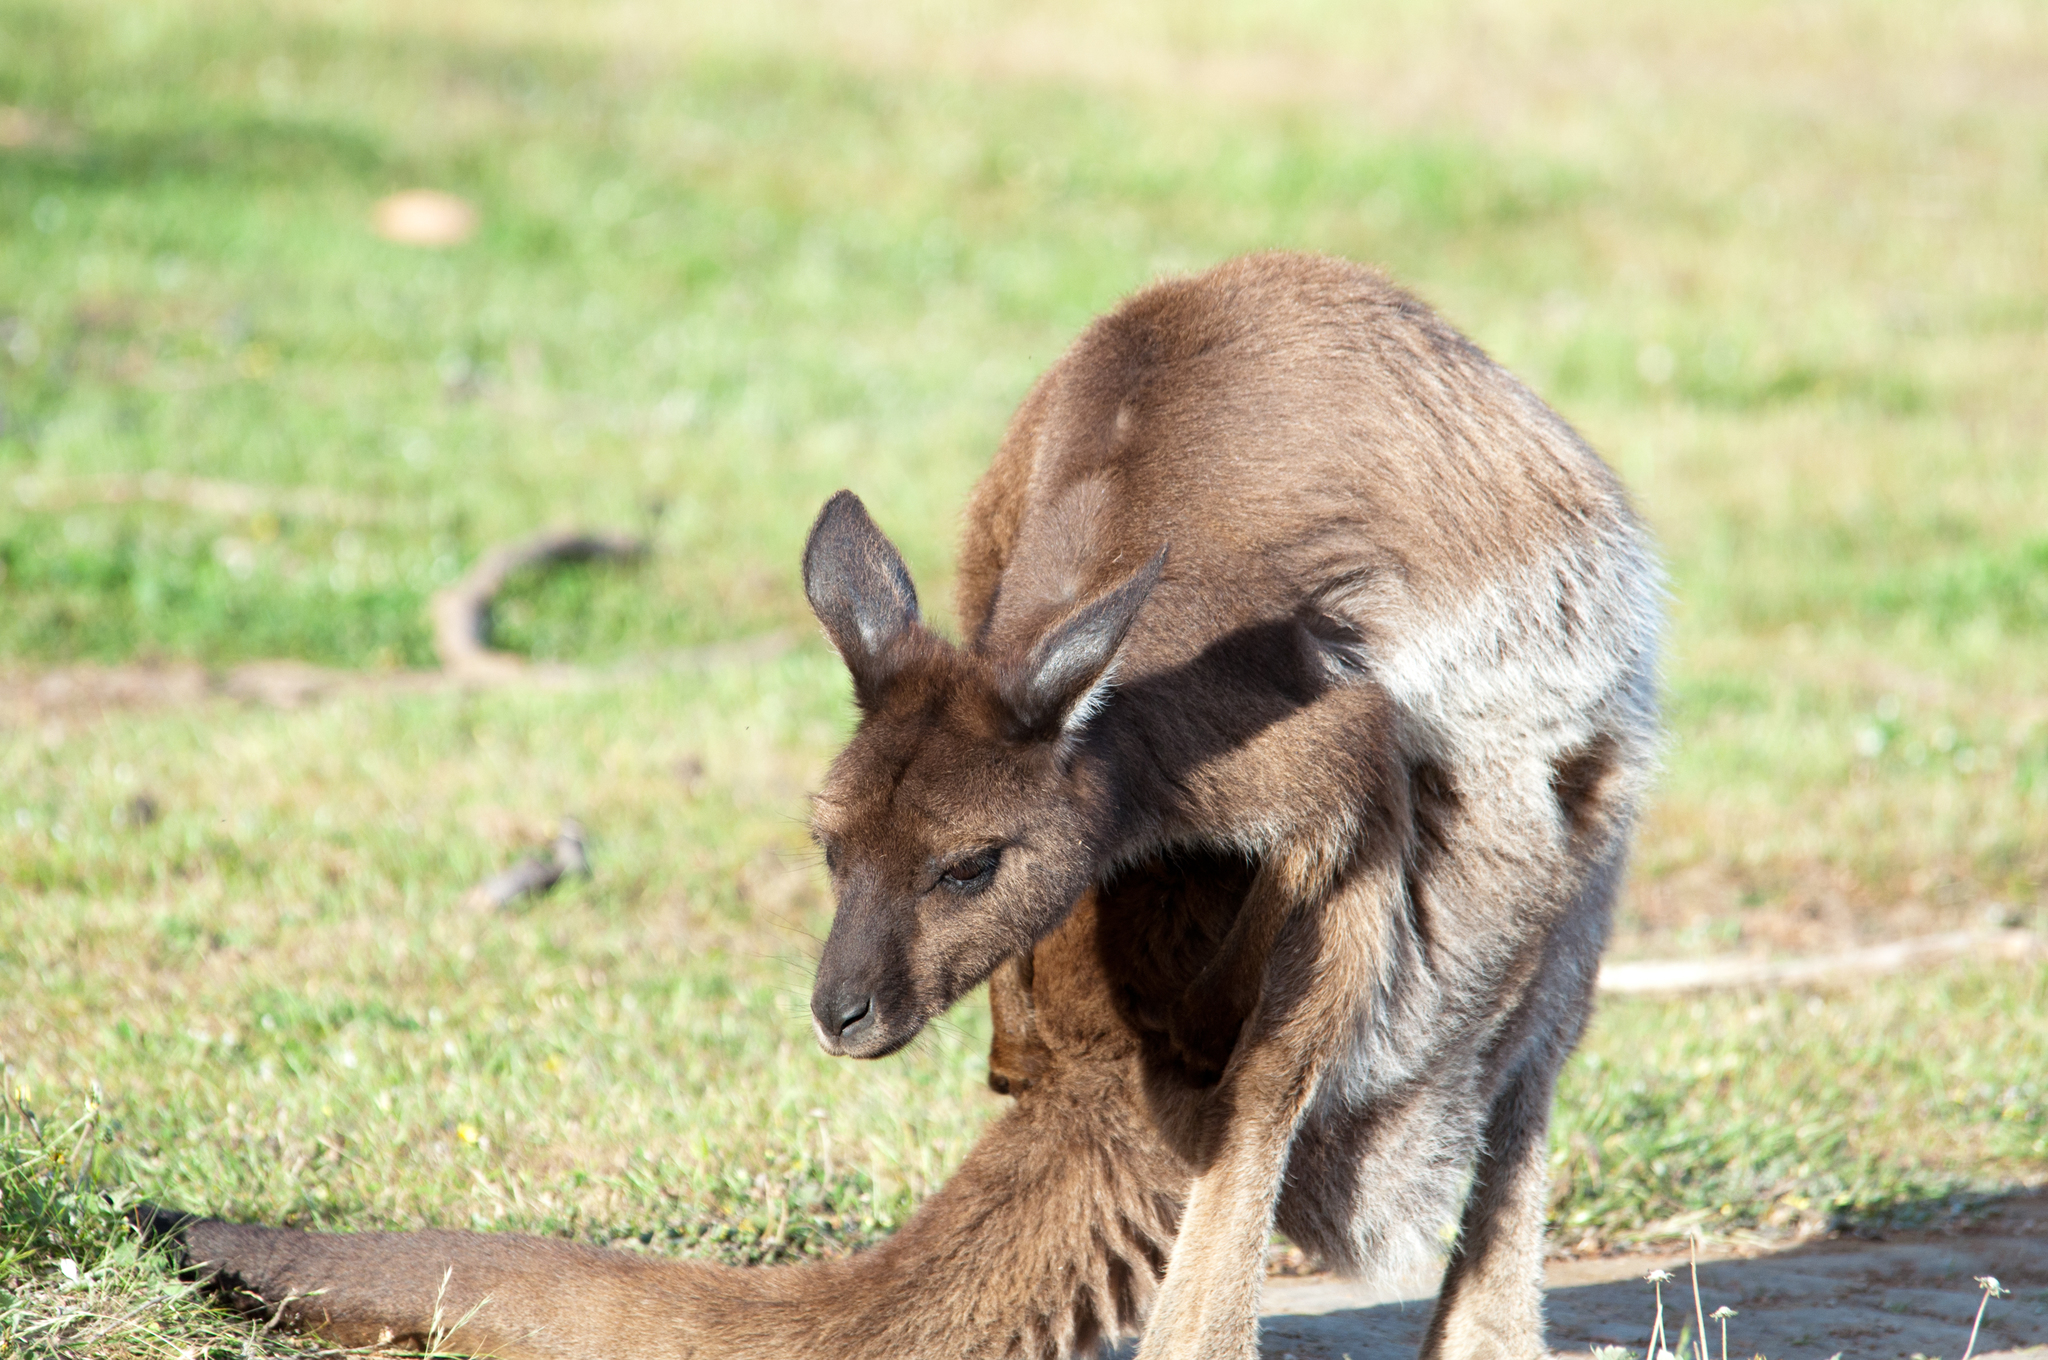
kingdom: Animalia
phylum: Chordata
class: Mammalia
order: Diprotodontia
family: Macropodidae
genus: Macropus
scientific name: Macropus fuliginosus
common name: Western grey kangaroo
